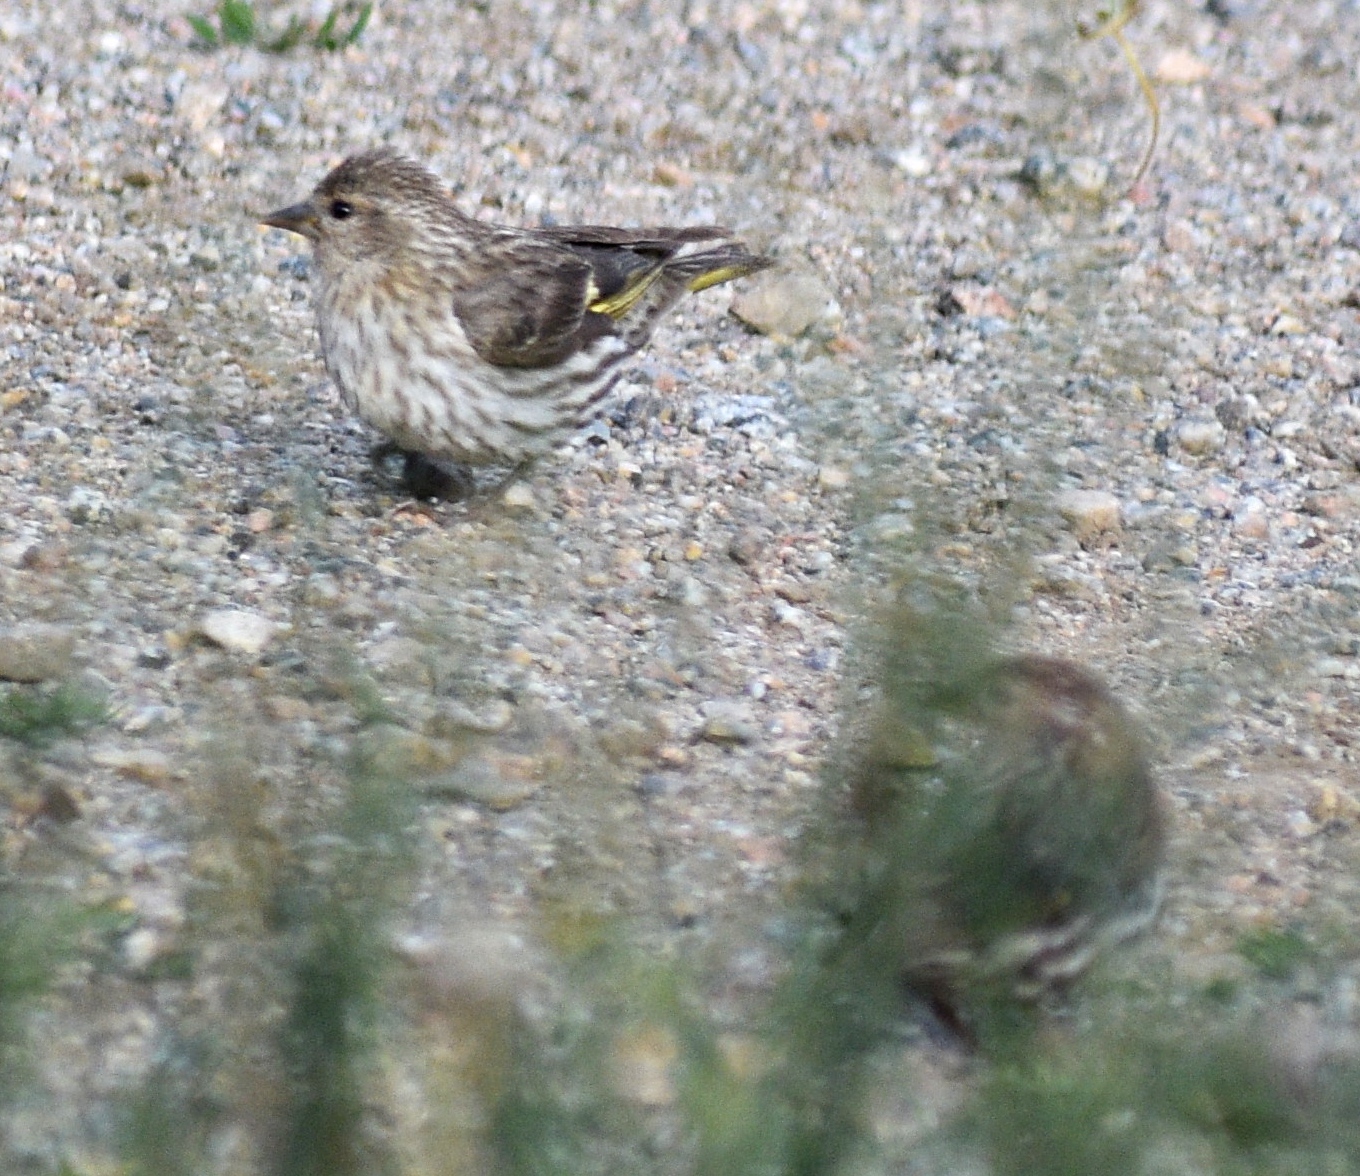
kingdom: Animalia
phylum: Chordata
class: Aves
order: Passeriformes
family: Fringillidae
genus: Spinus
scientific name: Spinus pinus
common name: Pine siskin
